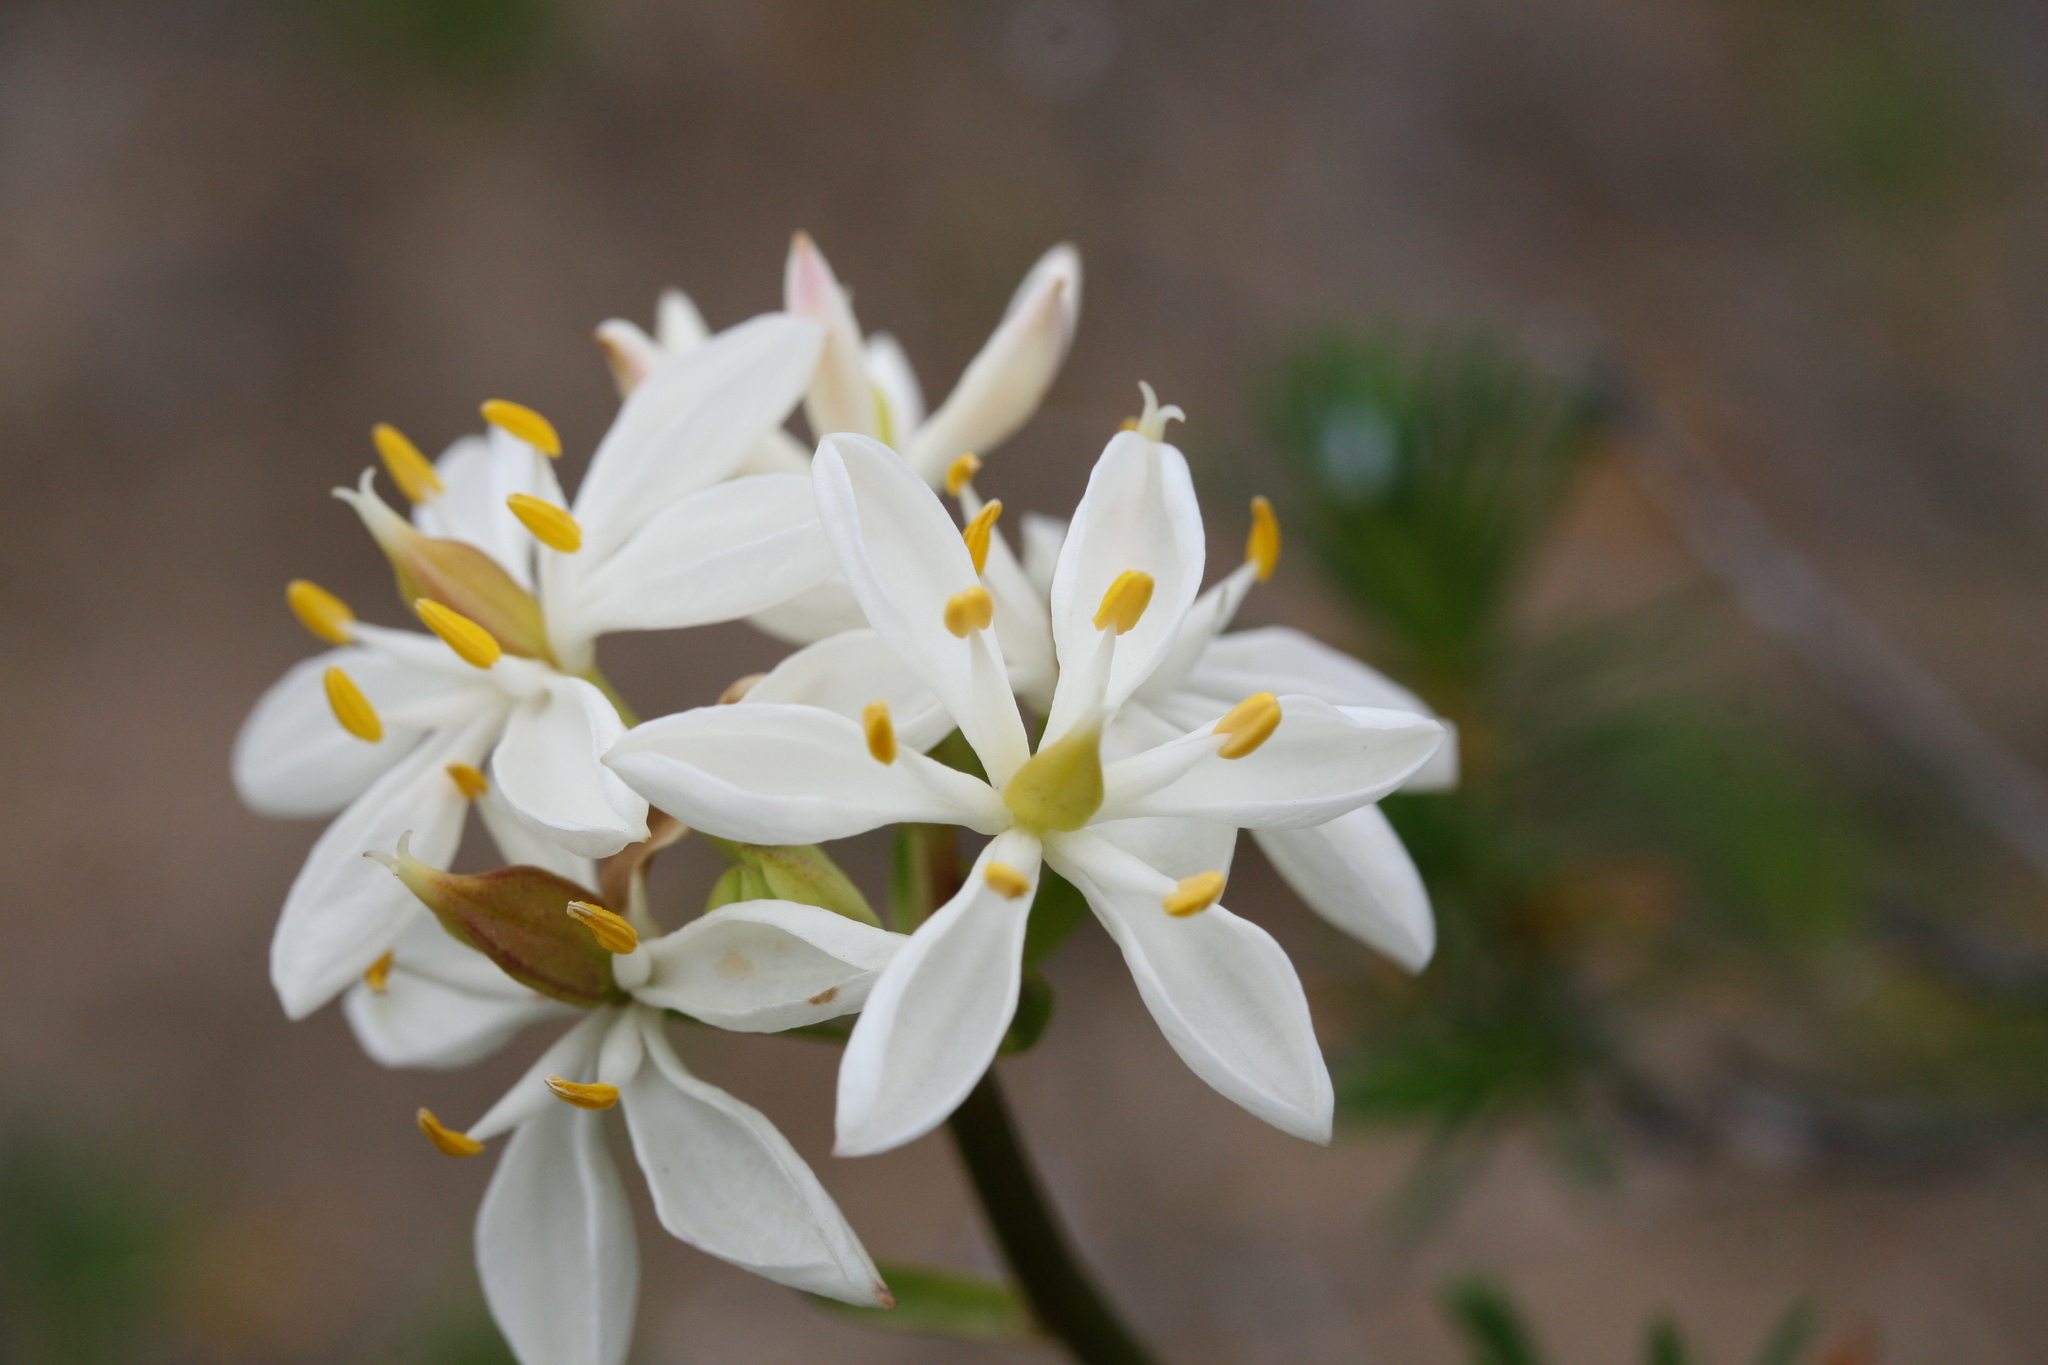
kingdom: Plantae
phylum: Tracheophyta
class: Liliopsida
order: Liliales
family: Colchicaceae
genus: Burchardia
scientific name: Burchardia congesta
